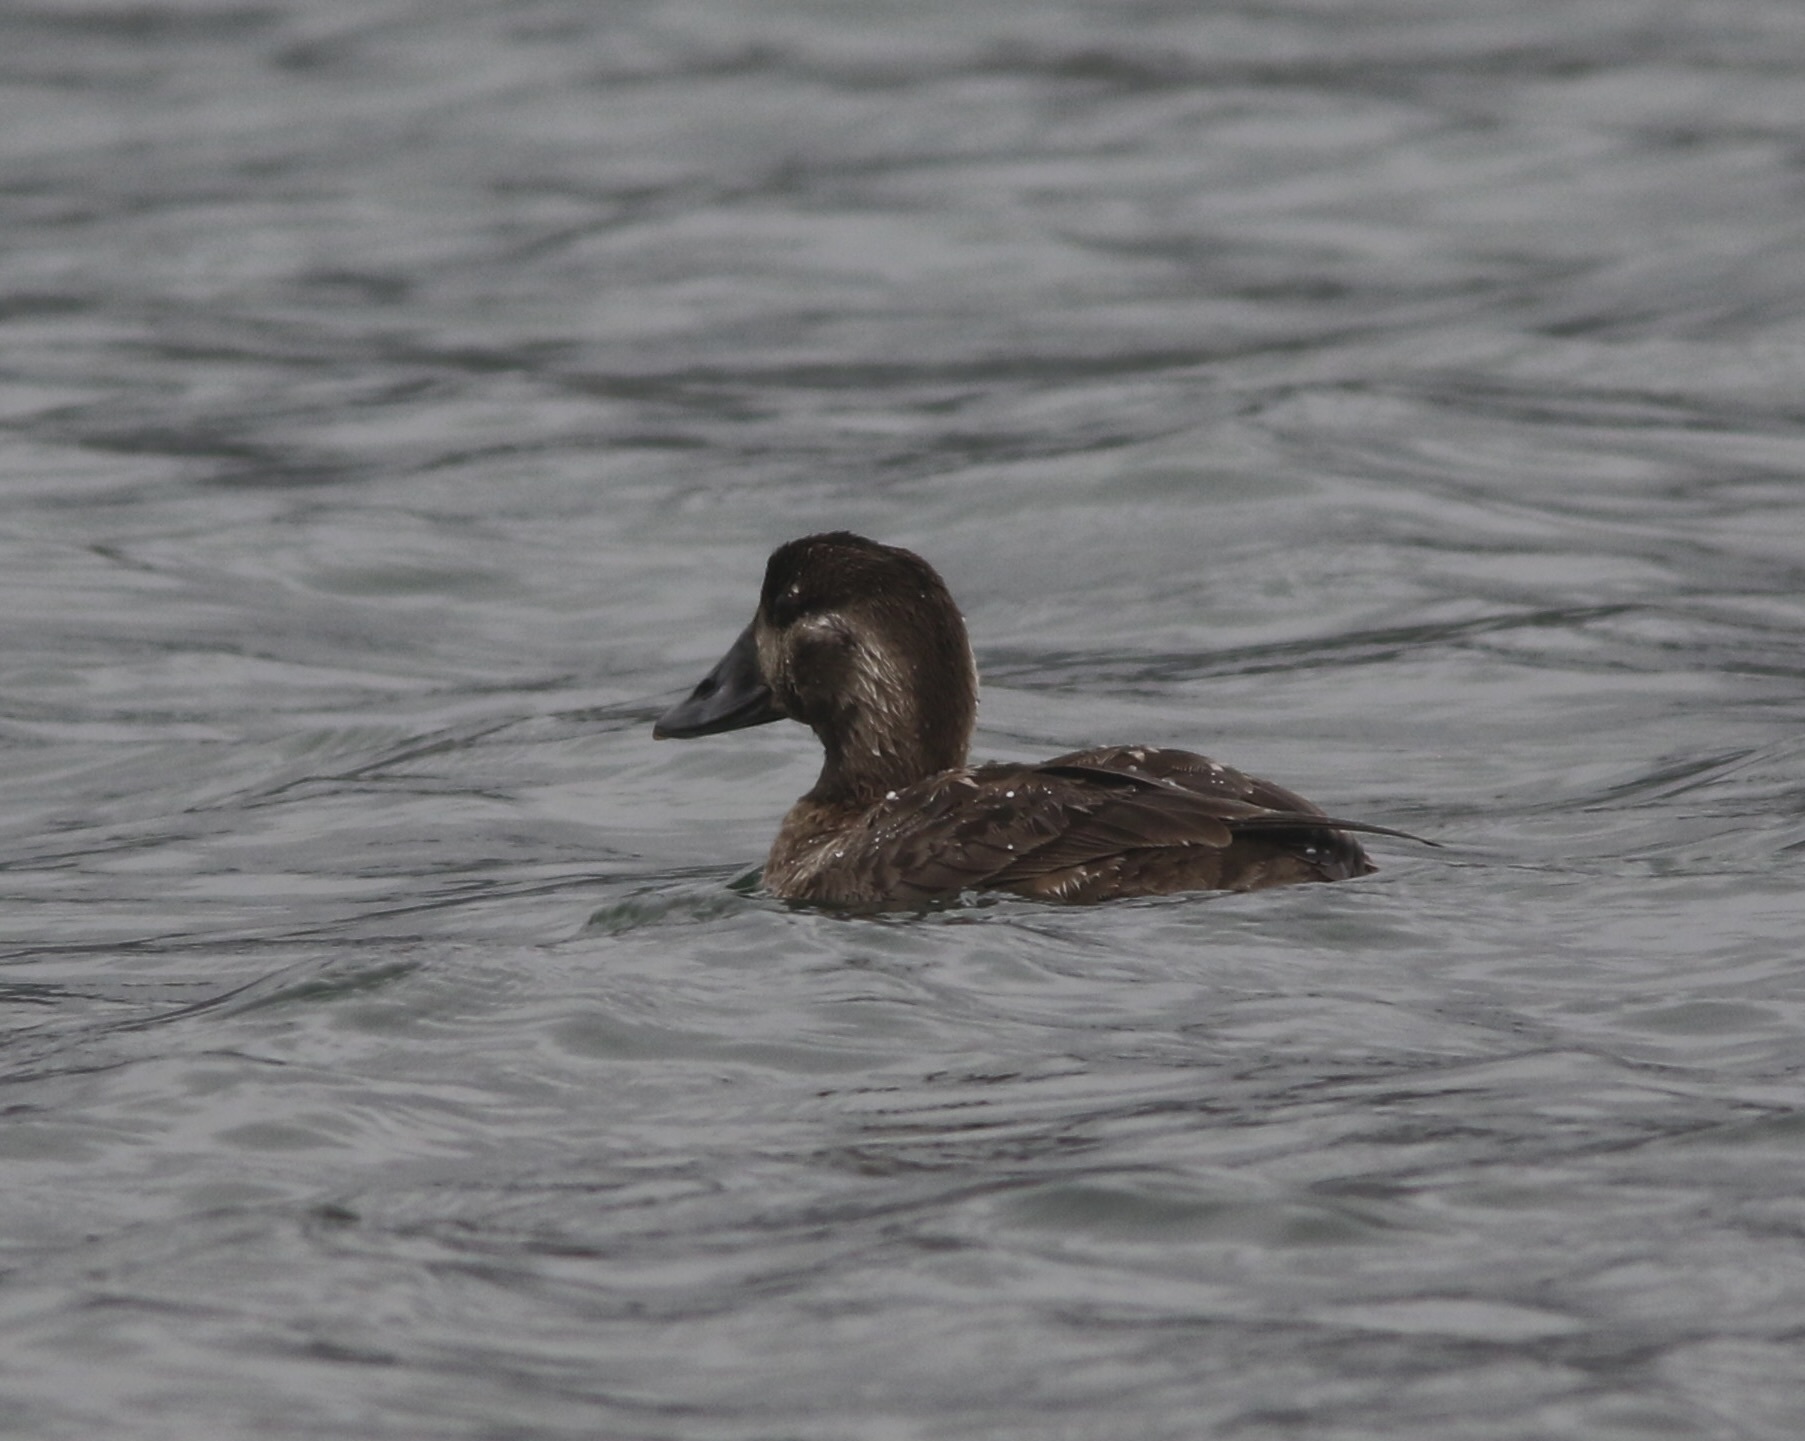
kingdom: Animalia
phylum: Chordata
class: Aves
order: Anseriformes
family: Anatidae
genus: Melanitta
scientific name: Melanitta perspicillata
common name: Surf scoter
